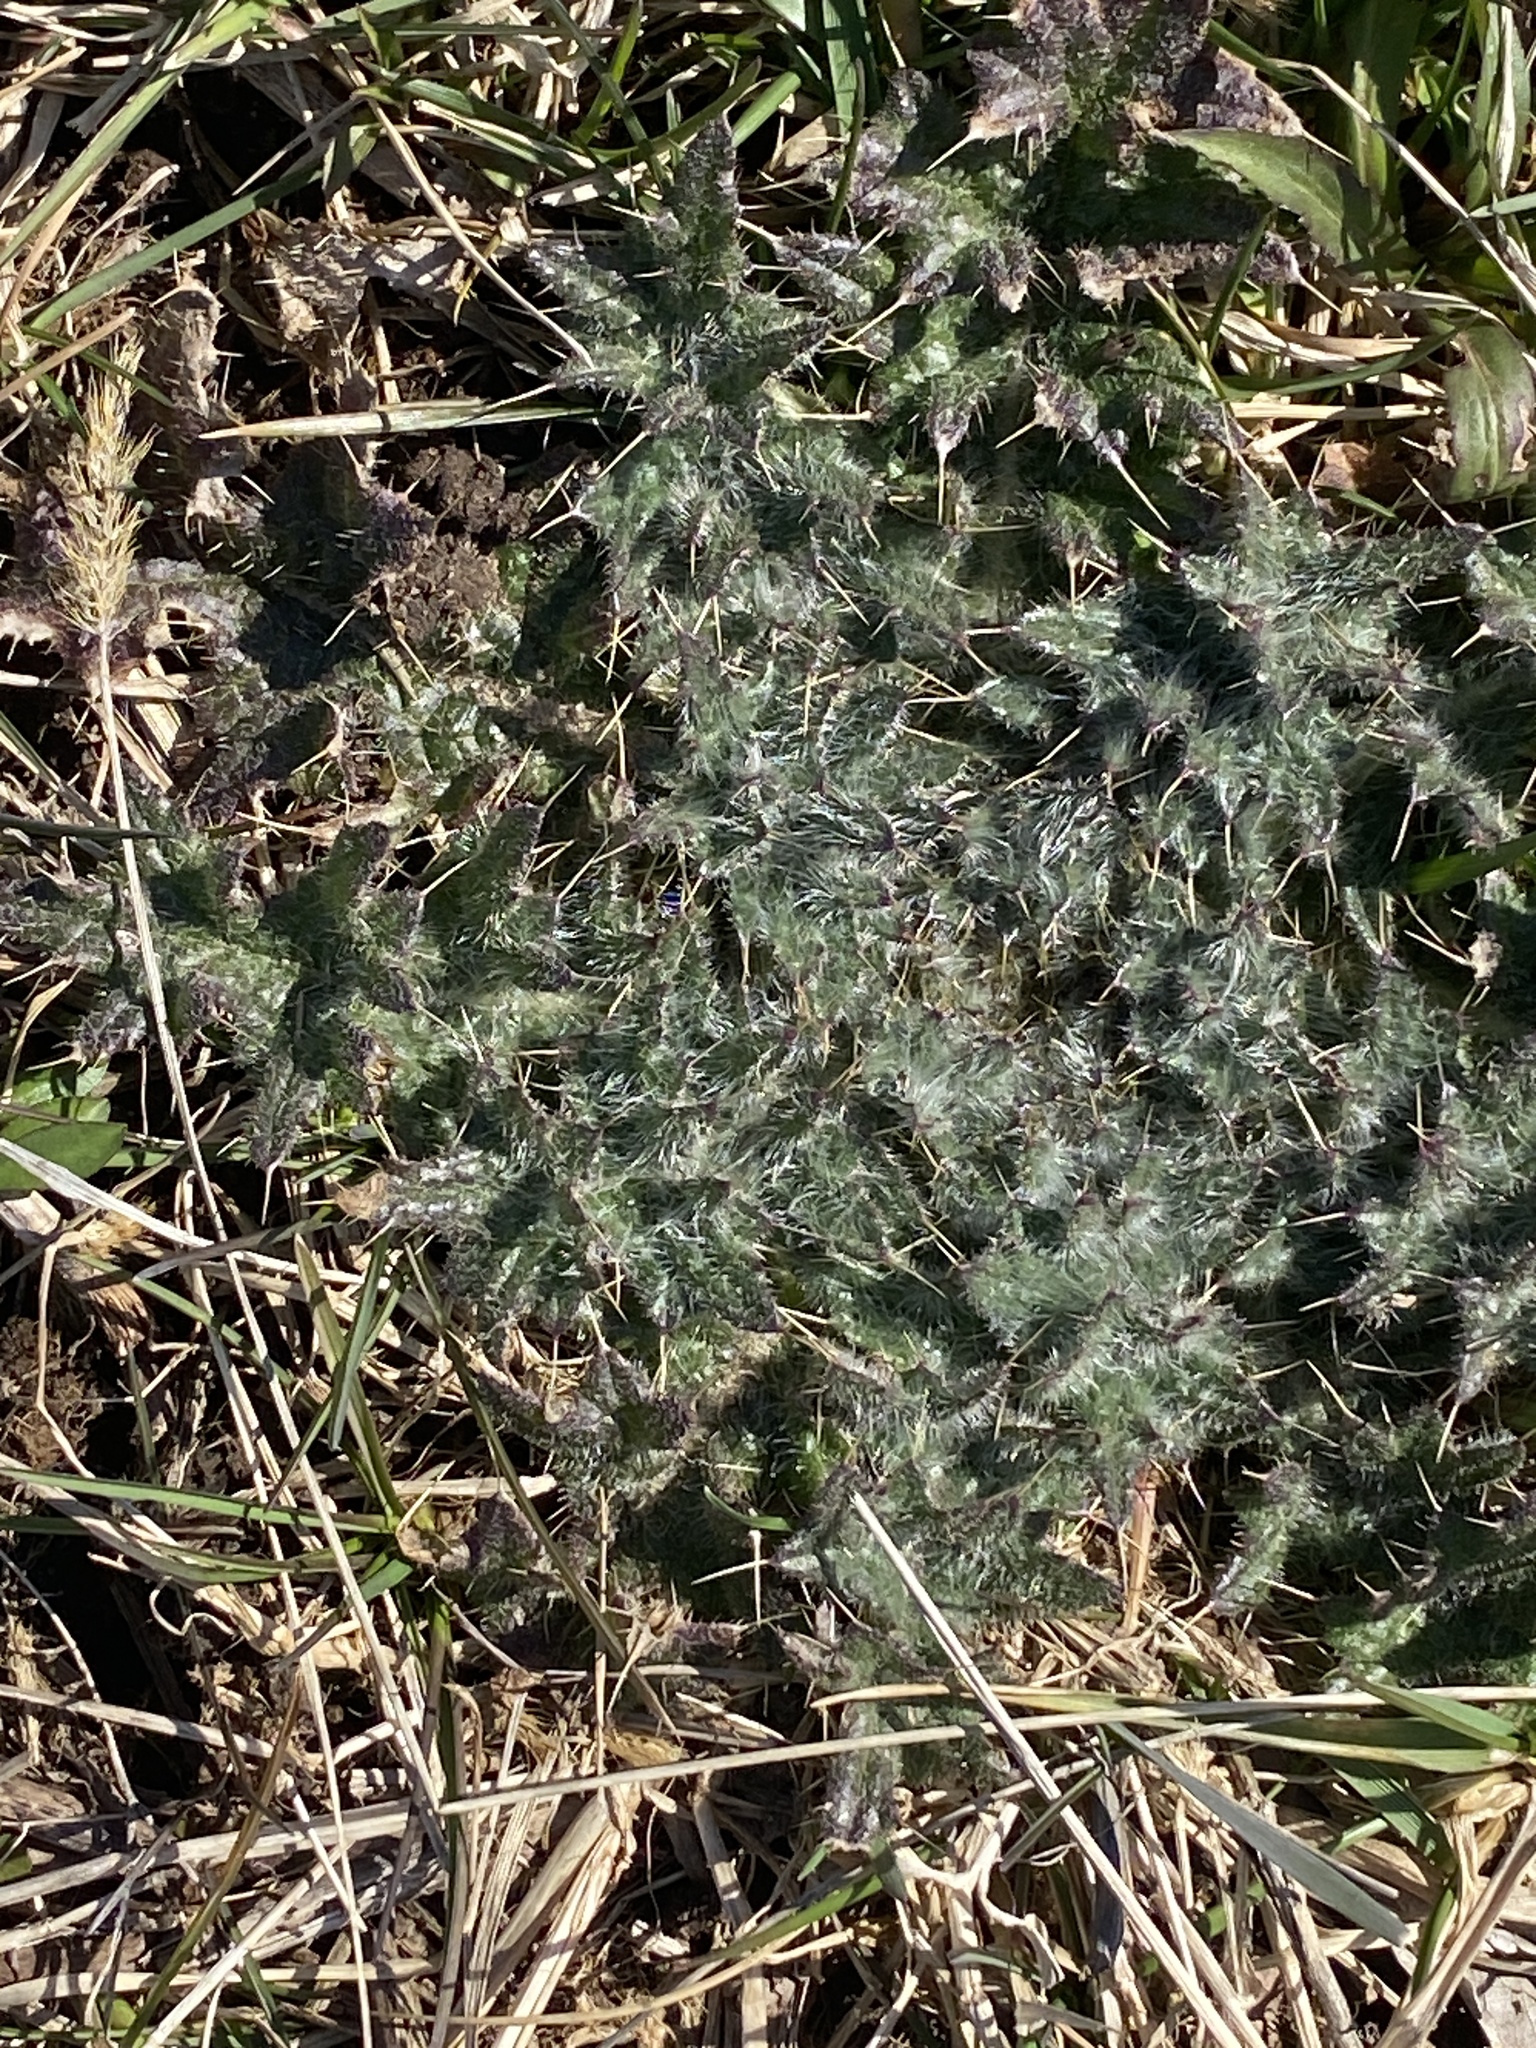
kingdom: Plantae
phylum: Tracheophyta
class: Magnoliopsida
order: Asterales
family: Asteraceae
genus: Cirsium
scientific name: Cirsium vulgare
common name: Bull thistle
